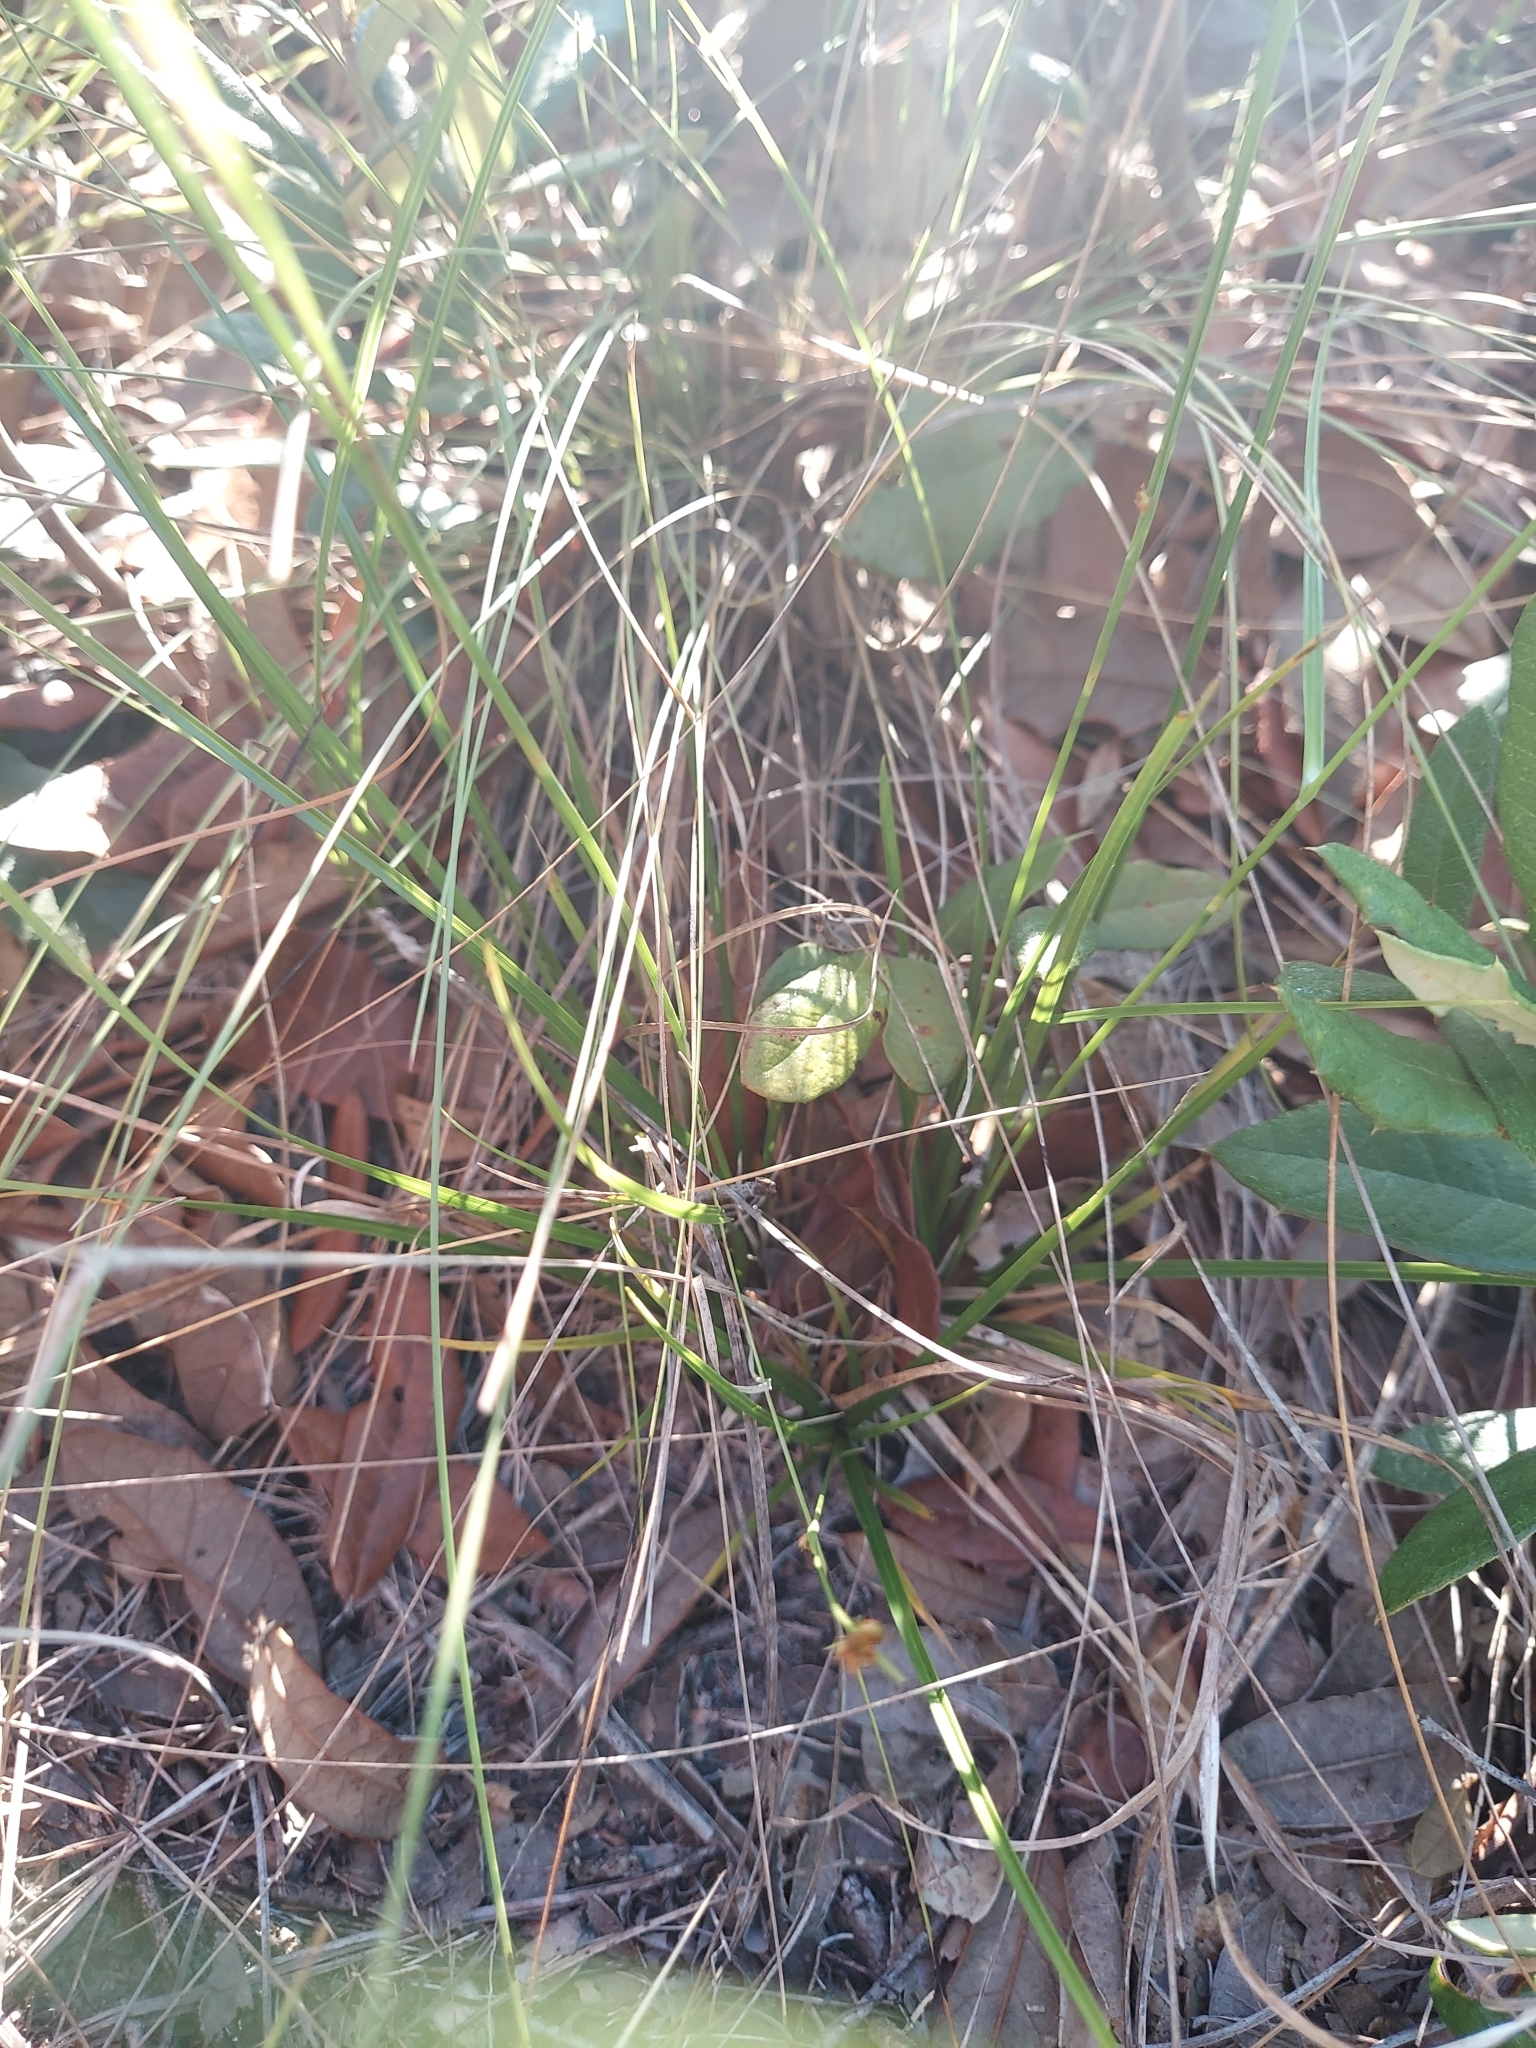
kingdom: Plantae
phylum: Tracheophyta
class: Liliopsida
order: Poales
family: Cyperaceae
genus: Rhynchospora
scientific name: Rhynchospora grayi
